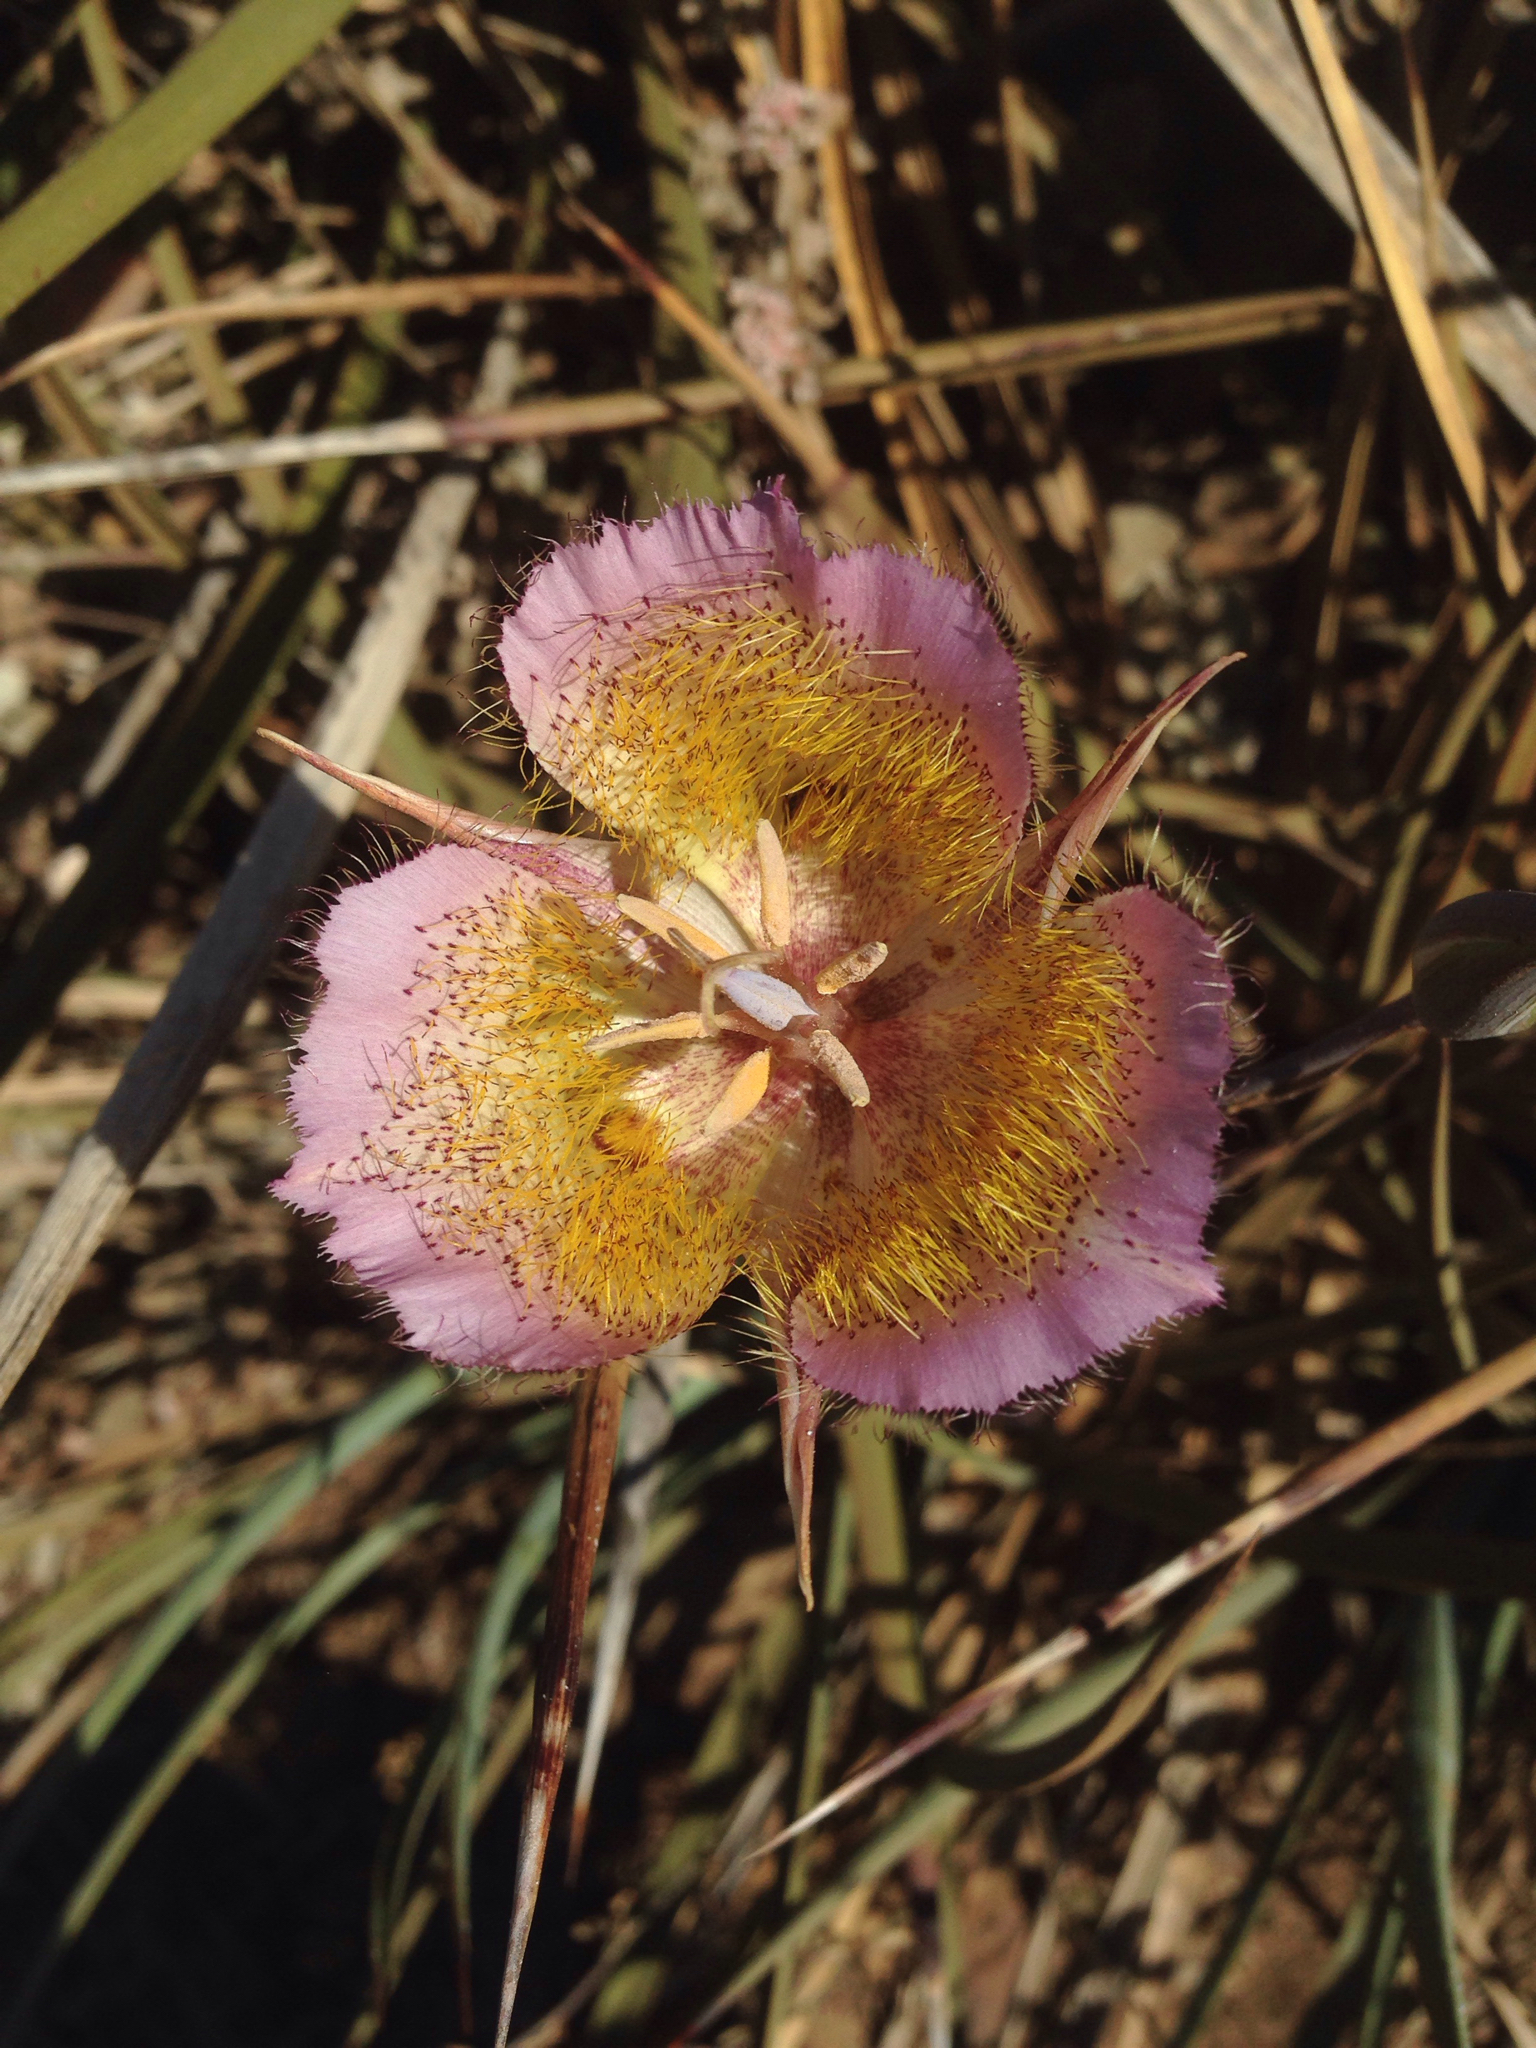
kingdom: Plantae
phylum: Tracheophyta
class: Liliopsida
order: Liliales
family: Liliaceae
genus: Calochortus
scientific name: Calochortus plummerae
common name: Plummer's mariposa-lily
